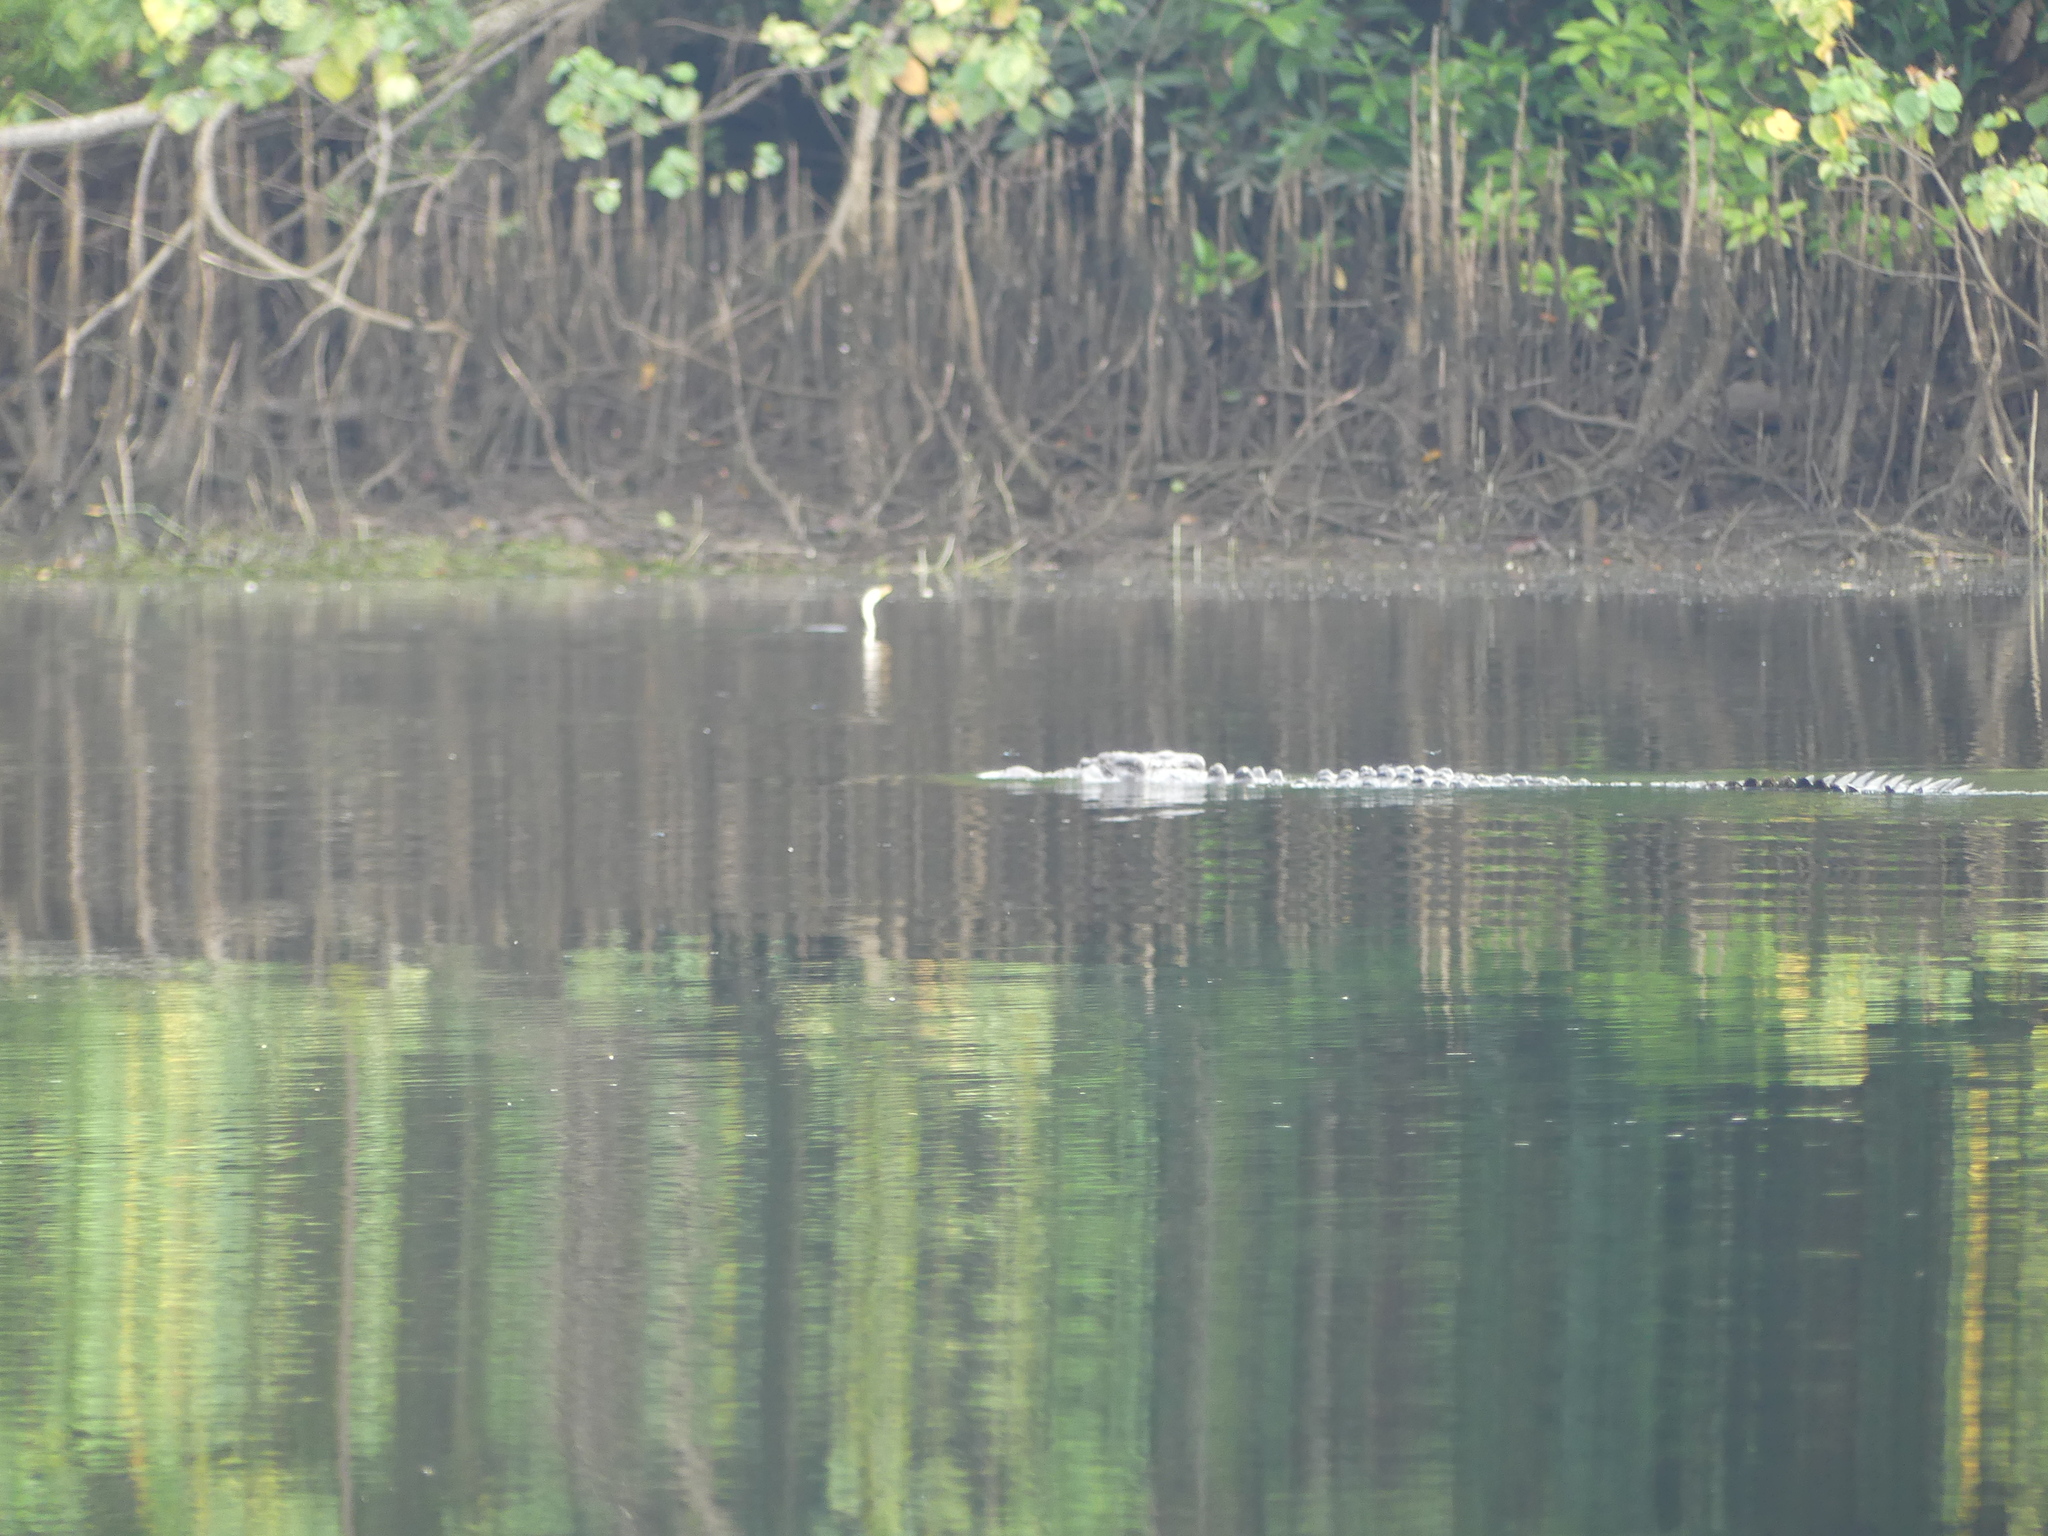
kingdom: Animalia
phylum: Chordata
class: Crocodylia
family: Crocodylidae
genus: Crocodylus
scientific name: Crocodylus porosus
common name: Saltwater crocodile
